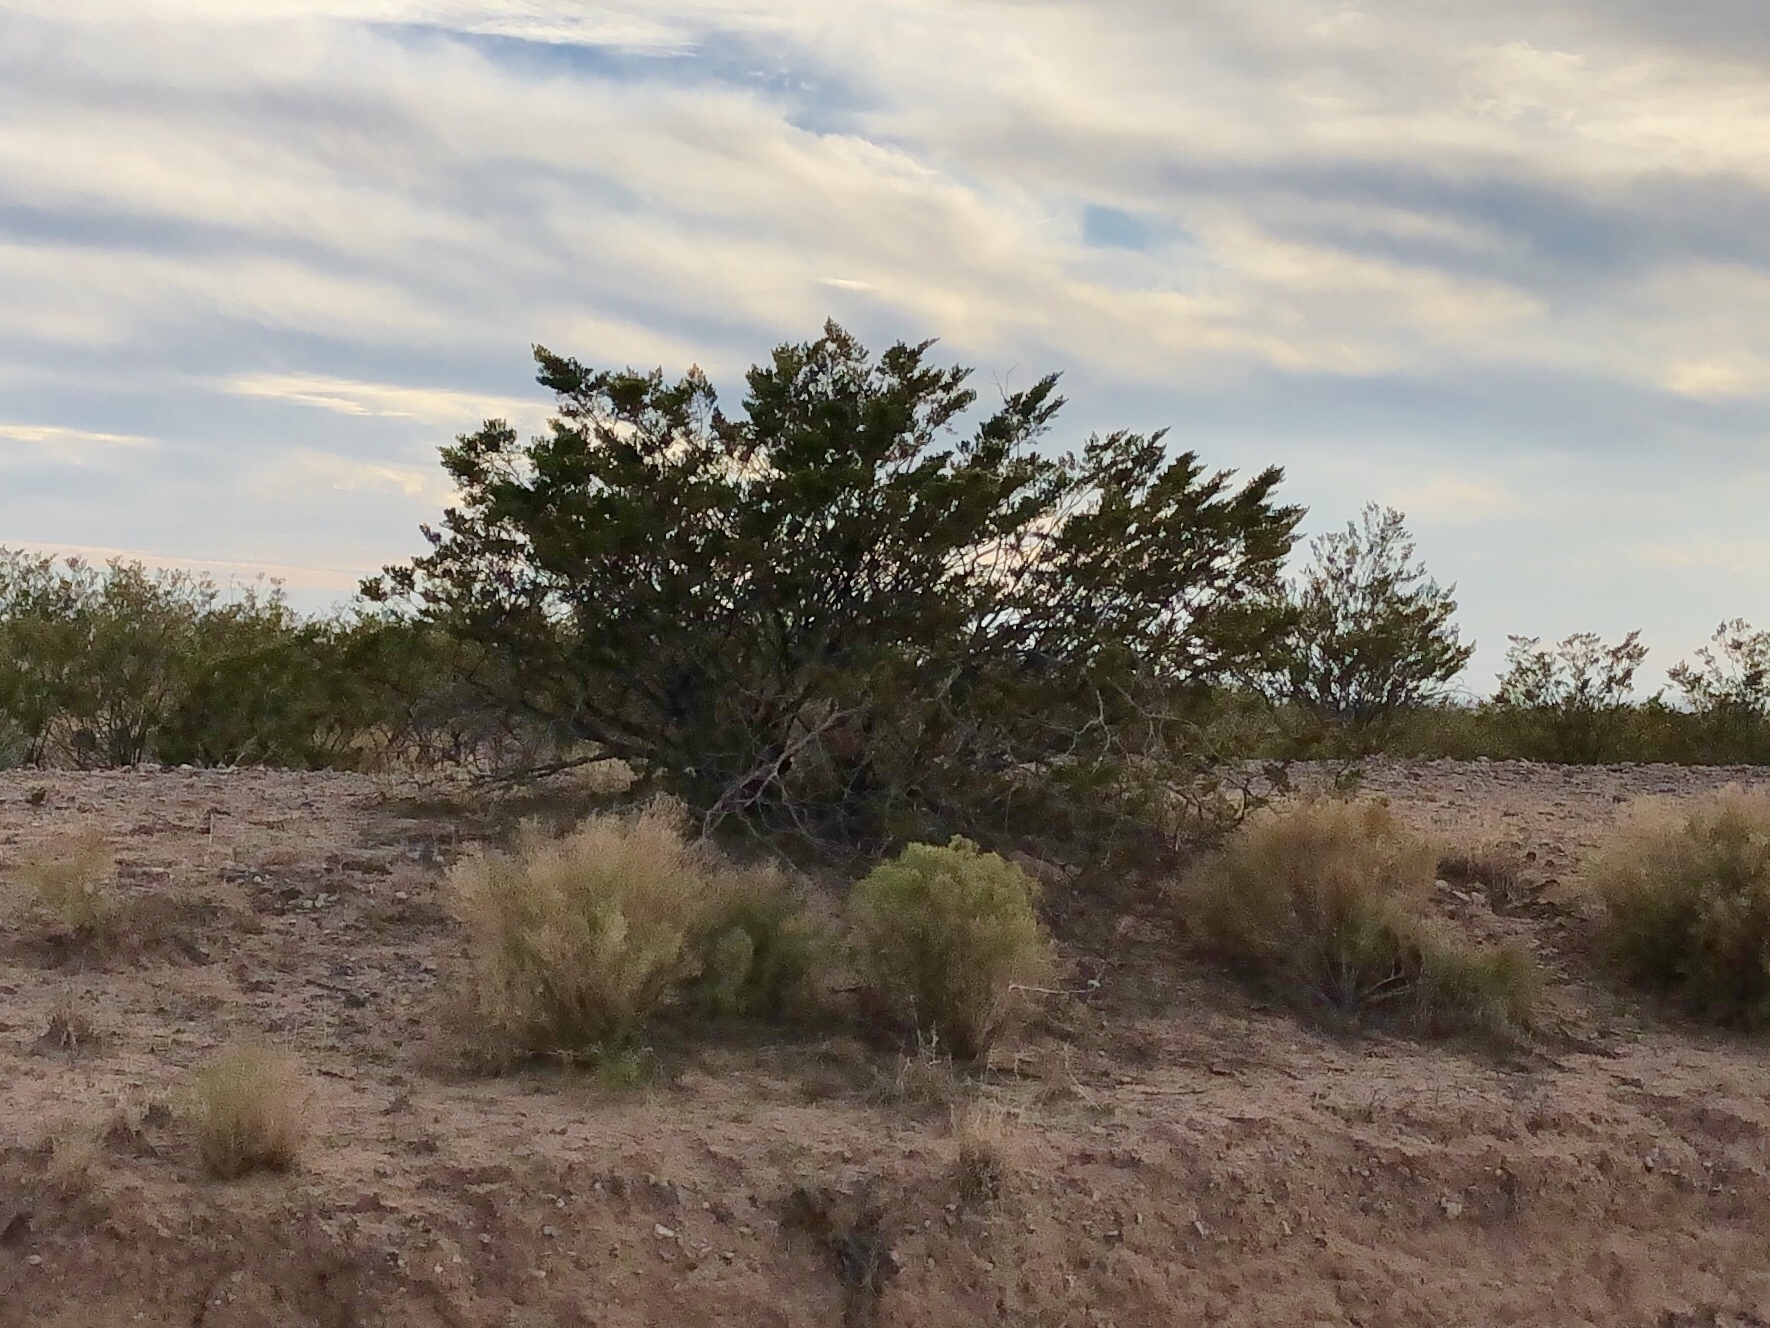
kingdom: Plantae
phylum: Tracheophyta
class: Magnoliopsida
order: Zygophyllales
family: Zygophyllaceae
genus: Larrea
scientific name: Larrea tridentata
